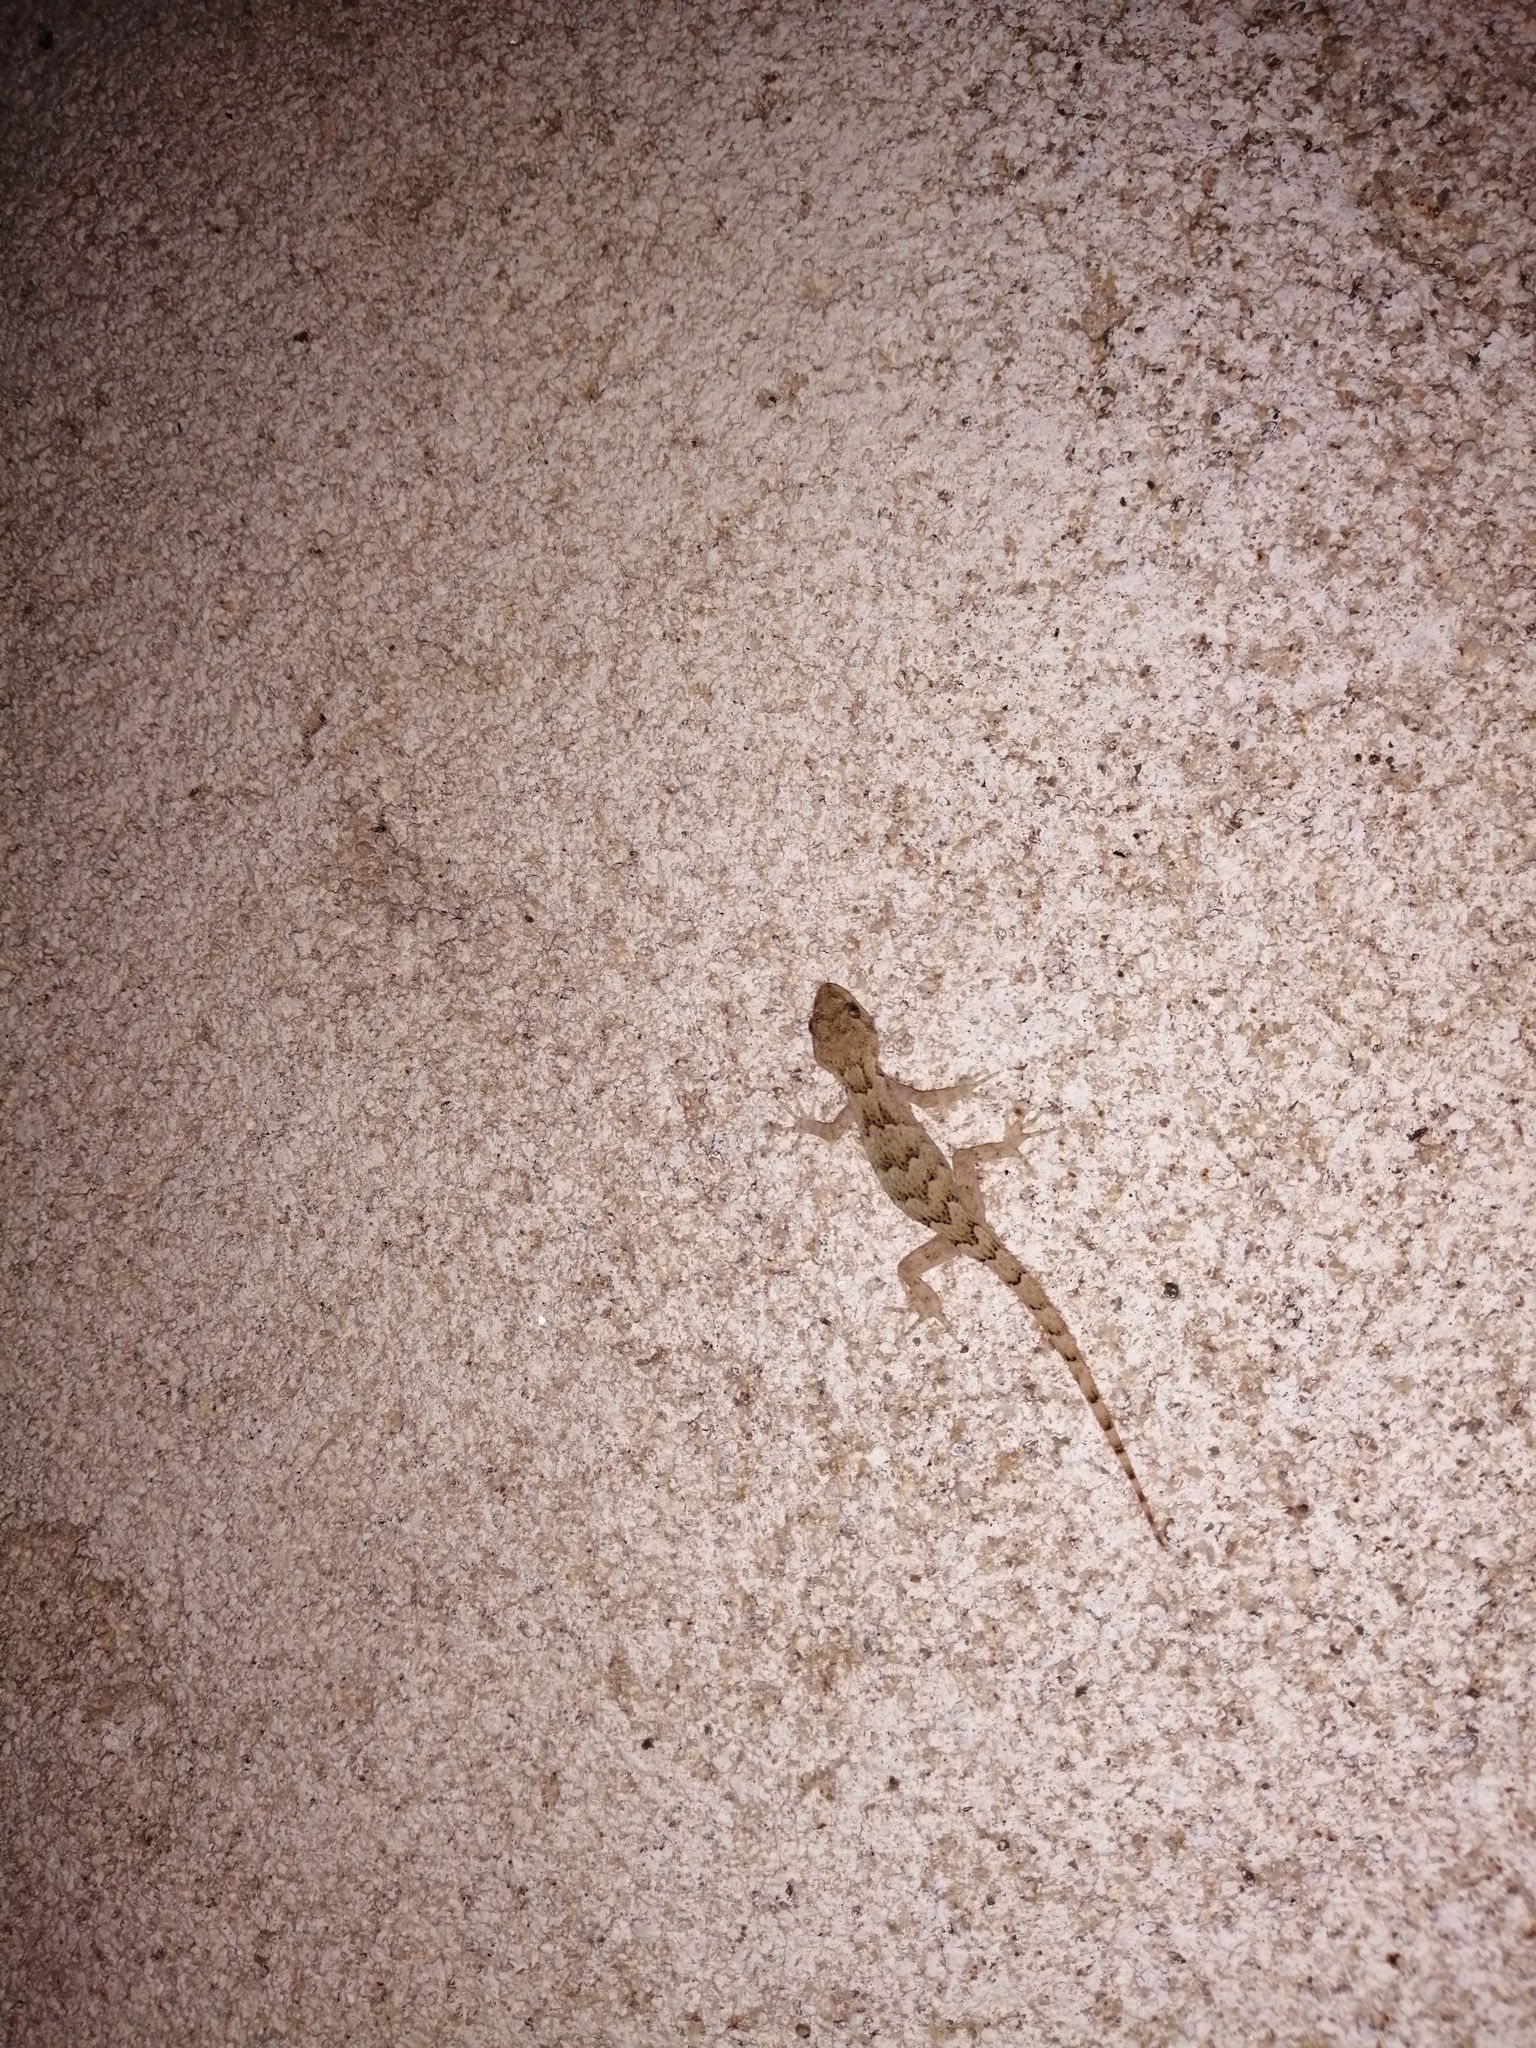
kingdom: Animalia
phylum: Chordata
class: Squamata
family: Gekkonidae
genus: Mediodactylus
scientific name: Mediodactylus danilewskii
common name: Bulgarian bent-toed gecko
